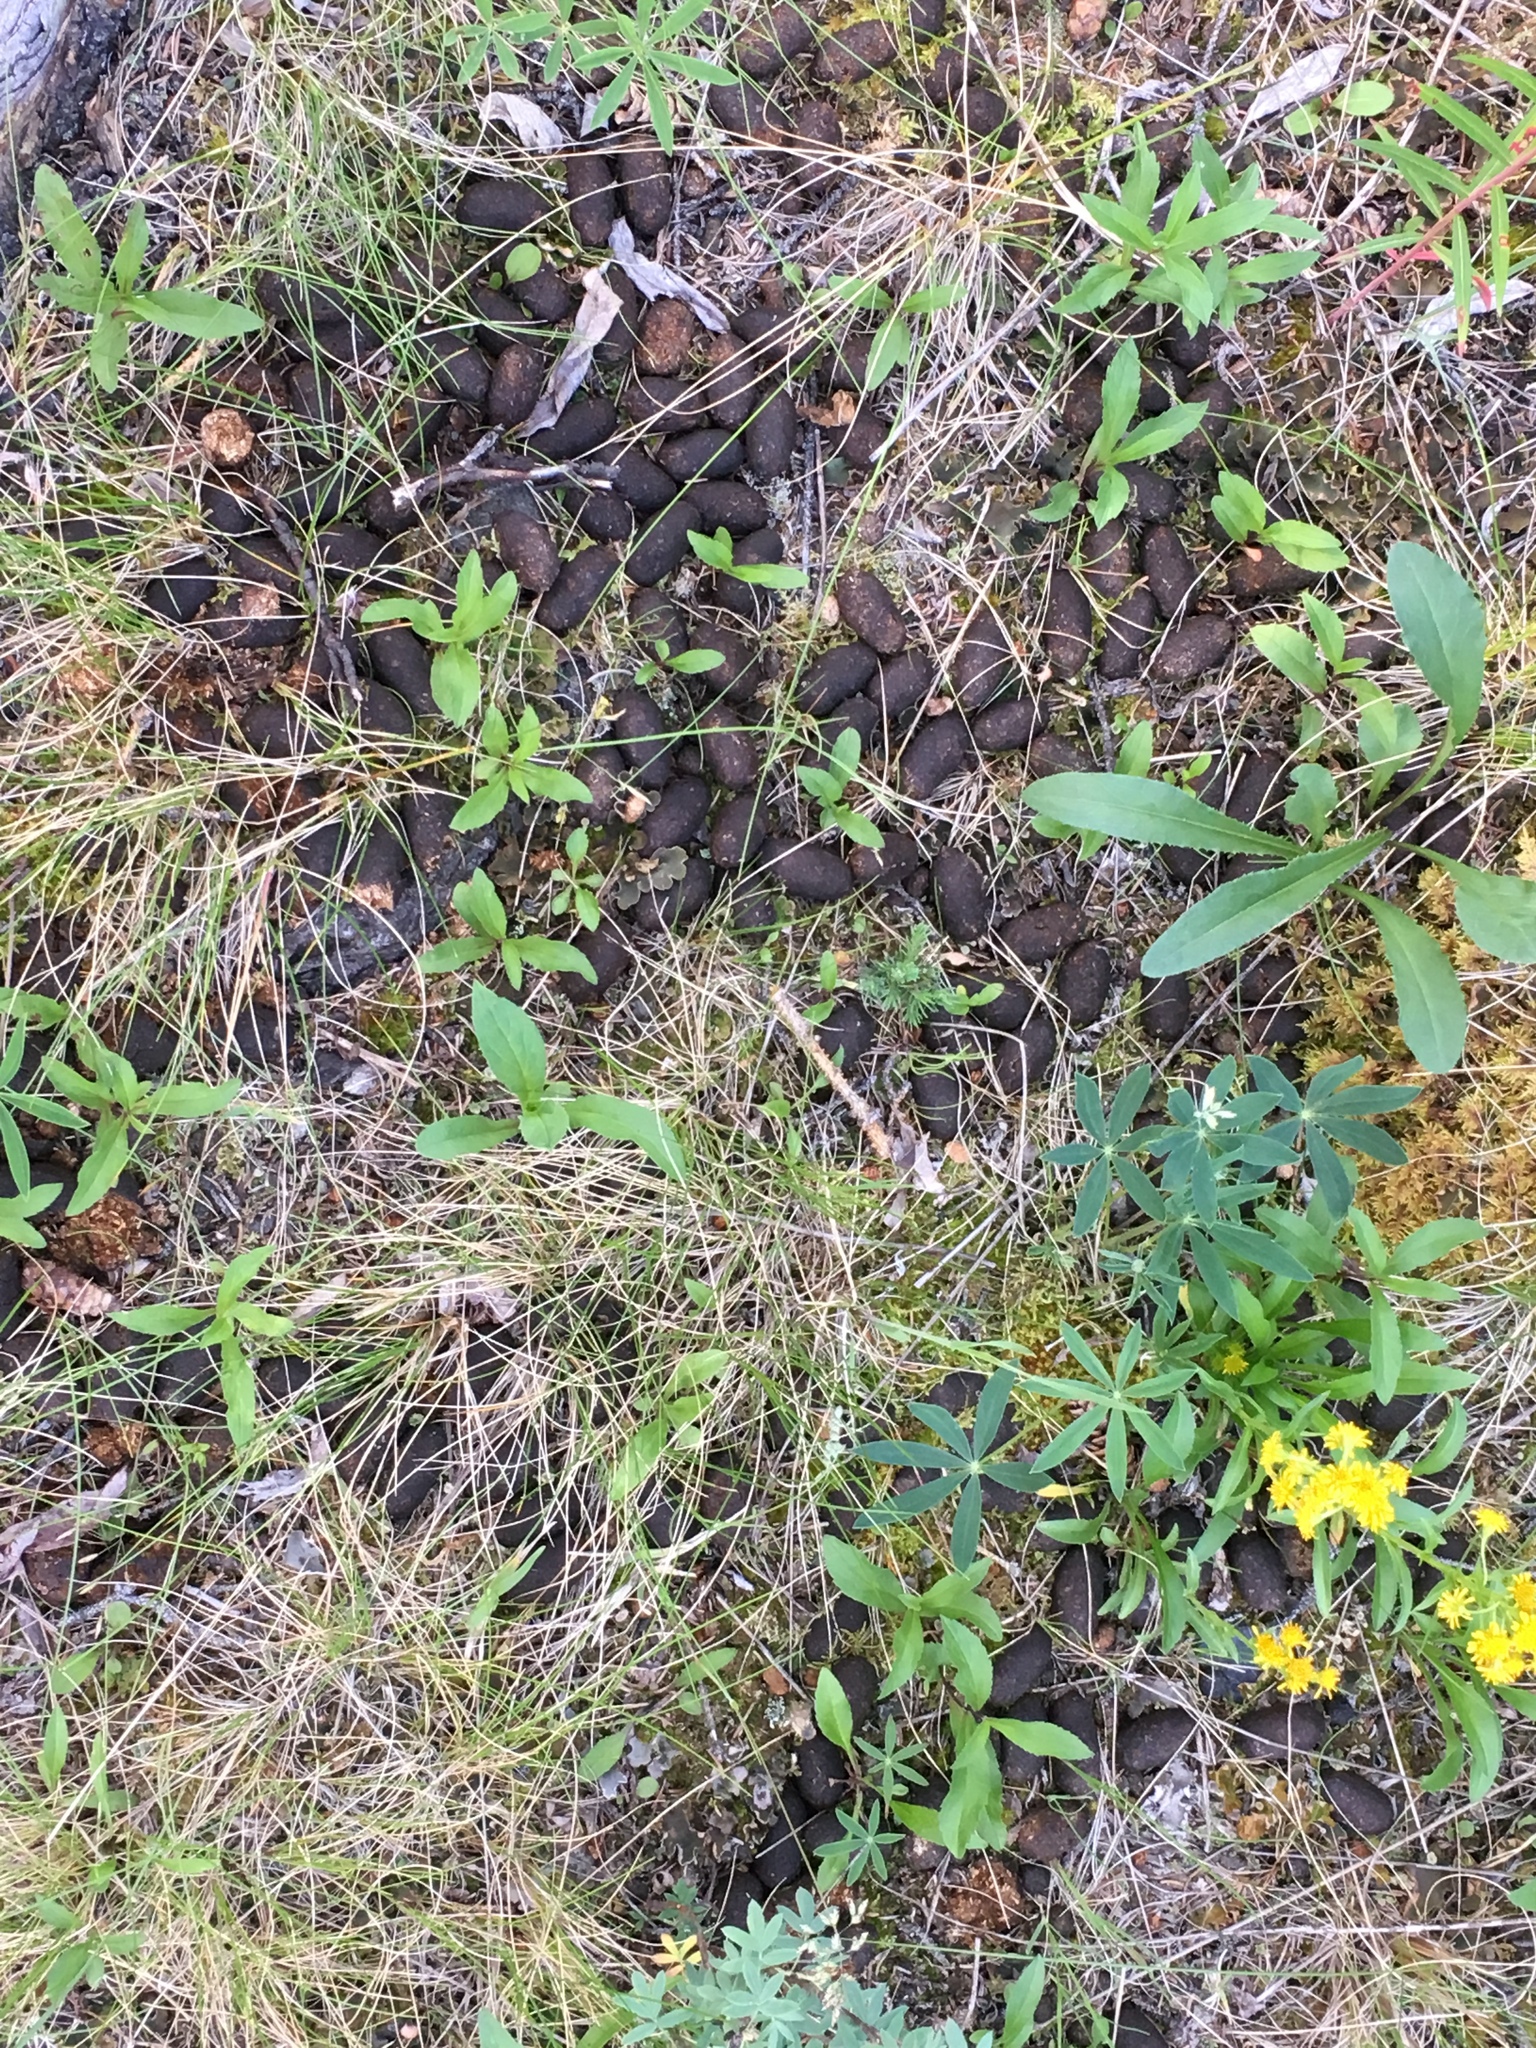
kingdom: Animalia
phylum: Chordata
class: Mammalia
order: Artiodactyla
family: Cervidae
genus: Alces
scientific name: Alces alces
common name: Moose
